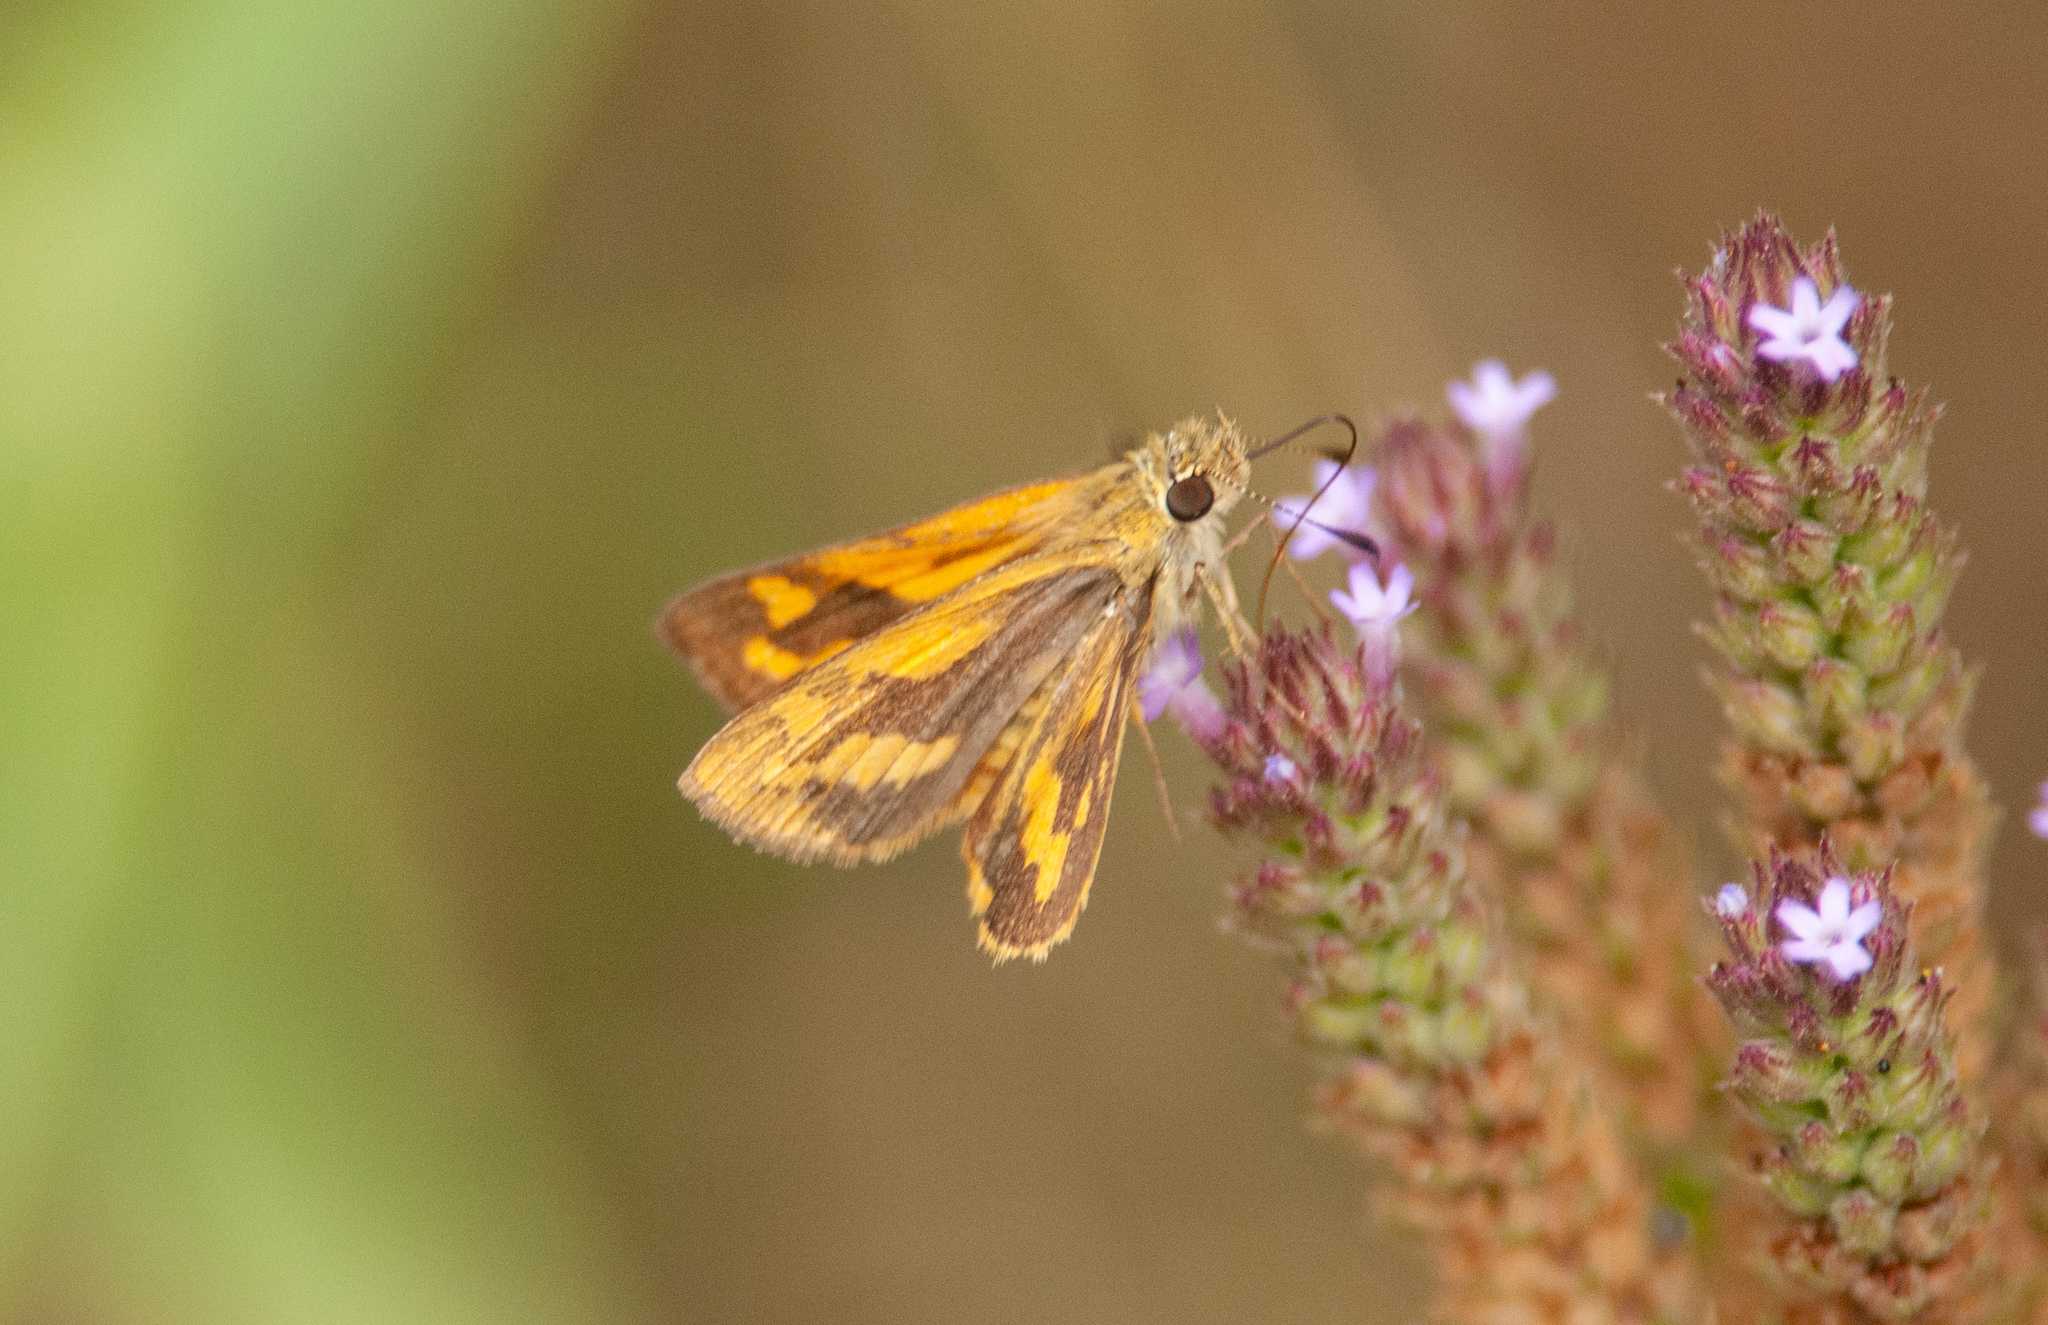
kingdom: Animalia
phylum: Arthropoda
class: Insecta
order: Lepidoptera
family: Hesperiidae
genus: Ocybadistes
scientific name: Ocybadistes walkeri
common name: Yellow-banded dart
